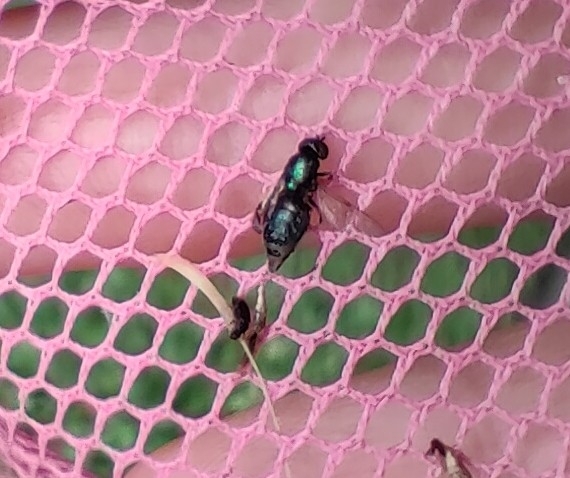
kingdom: Animalia
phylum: Arthropoda
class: Insecta
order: Diptera
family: Stratiomyidae
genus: Microchrysa
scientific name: Microchrysa polita
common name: Black-horned gem
